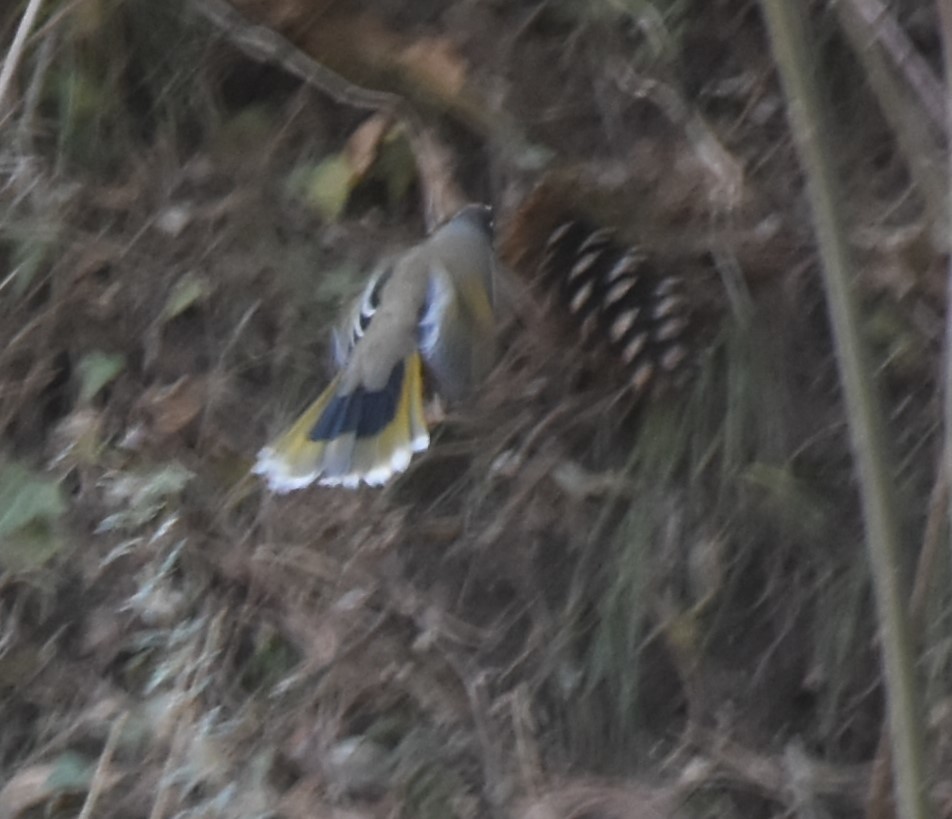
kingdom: Animalia
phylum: Chordata
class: Aves
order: Passeriformes
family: Leiothrichidae
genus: Trochalopteron
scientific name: Trochalopteron variegatum
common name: Variegated laughingthrush
